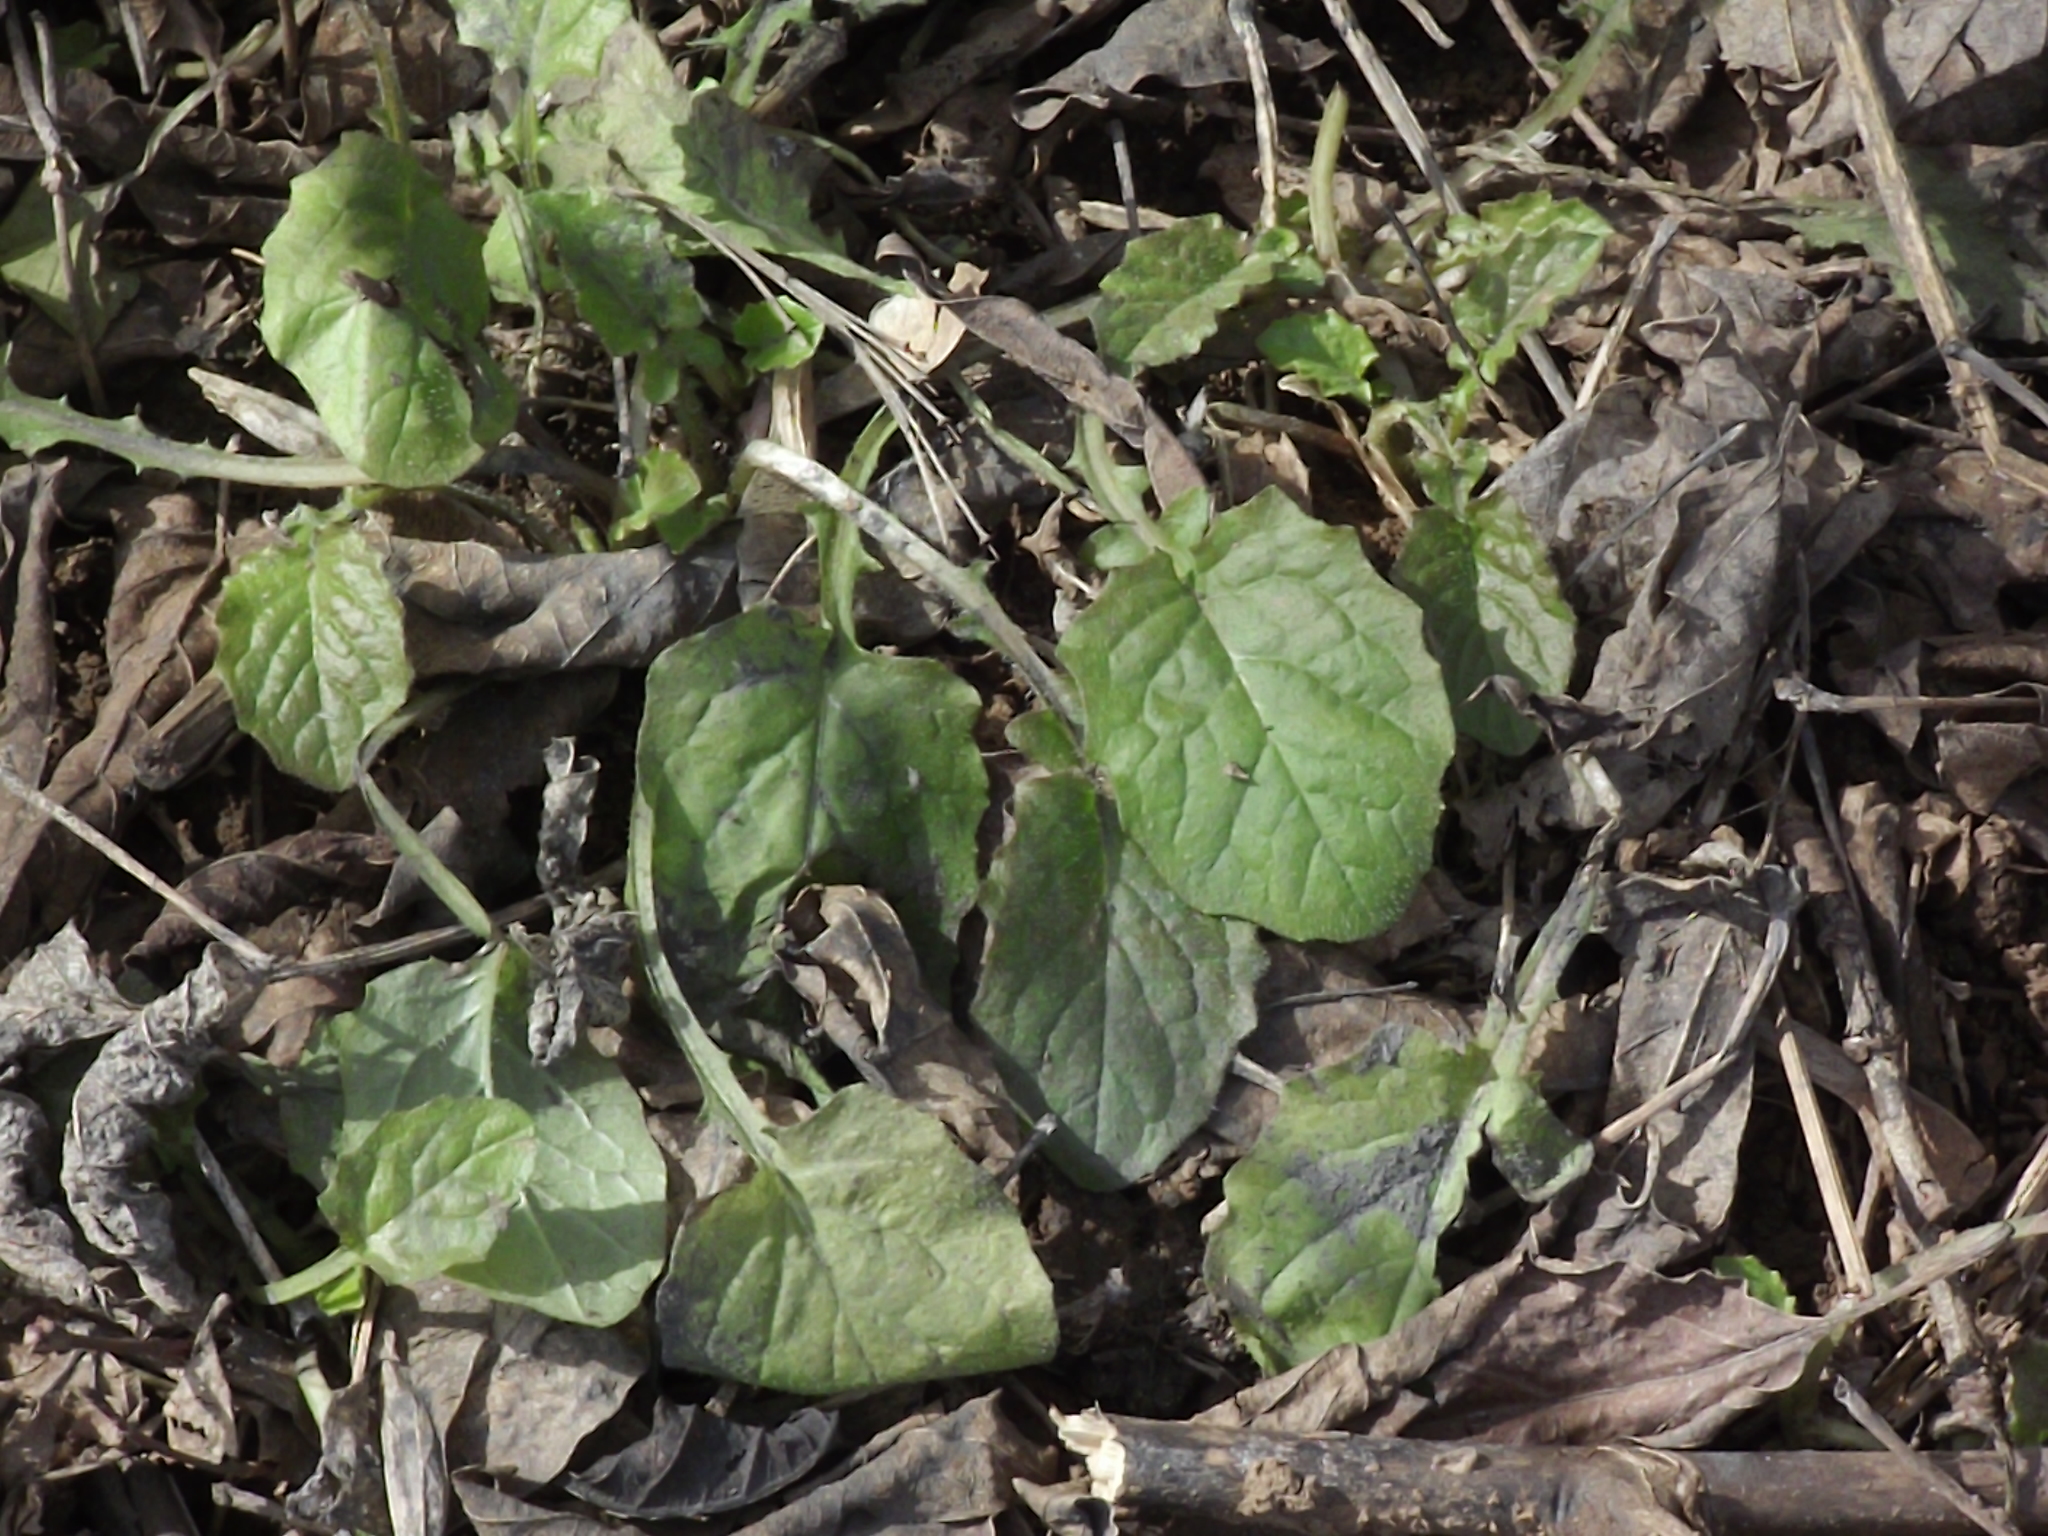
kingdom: Plantae
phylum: Tracheophyta
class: Magnoliopsida
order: Asterales
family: Asteraceae
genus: Lapsana
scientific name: Lapsana communis
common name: Nipplewort
